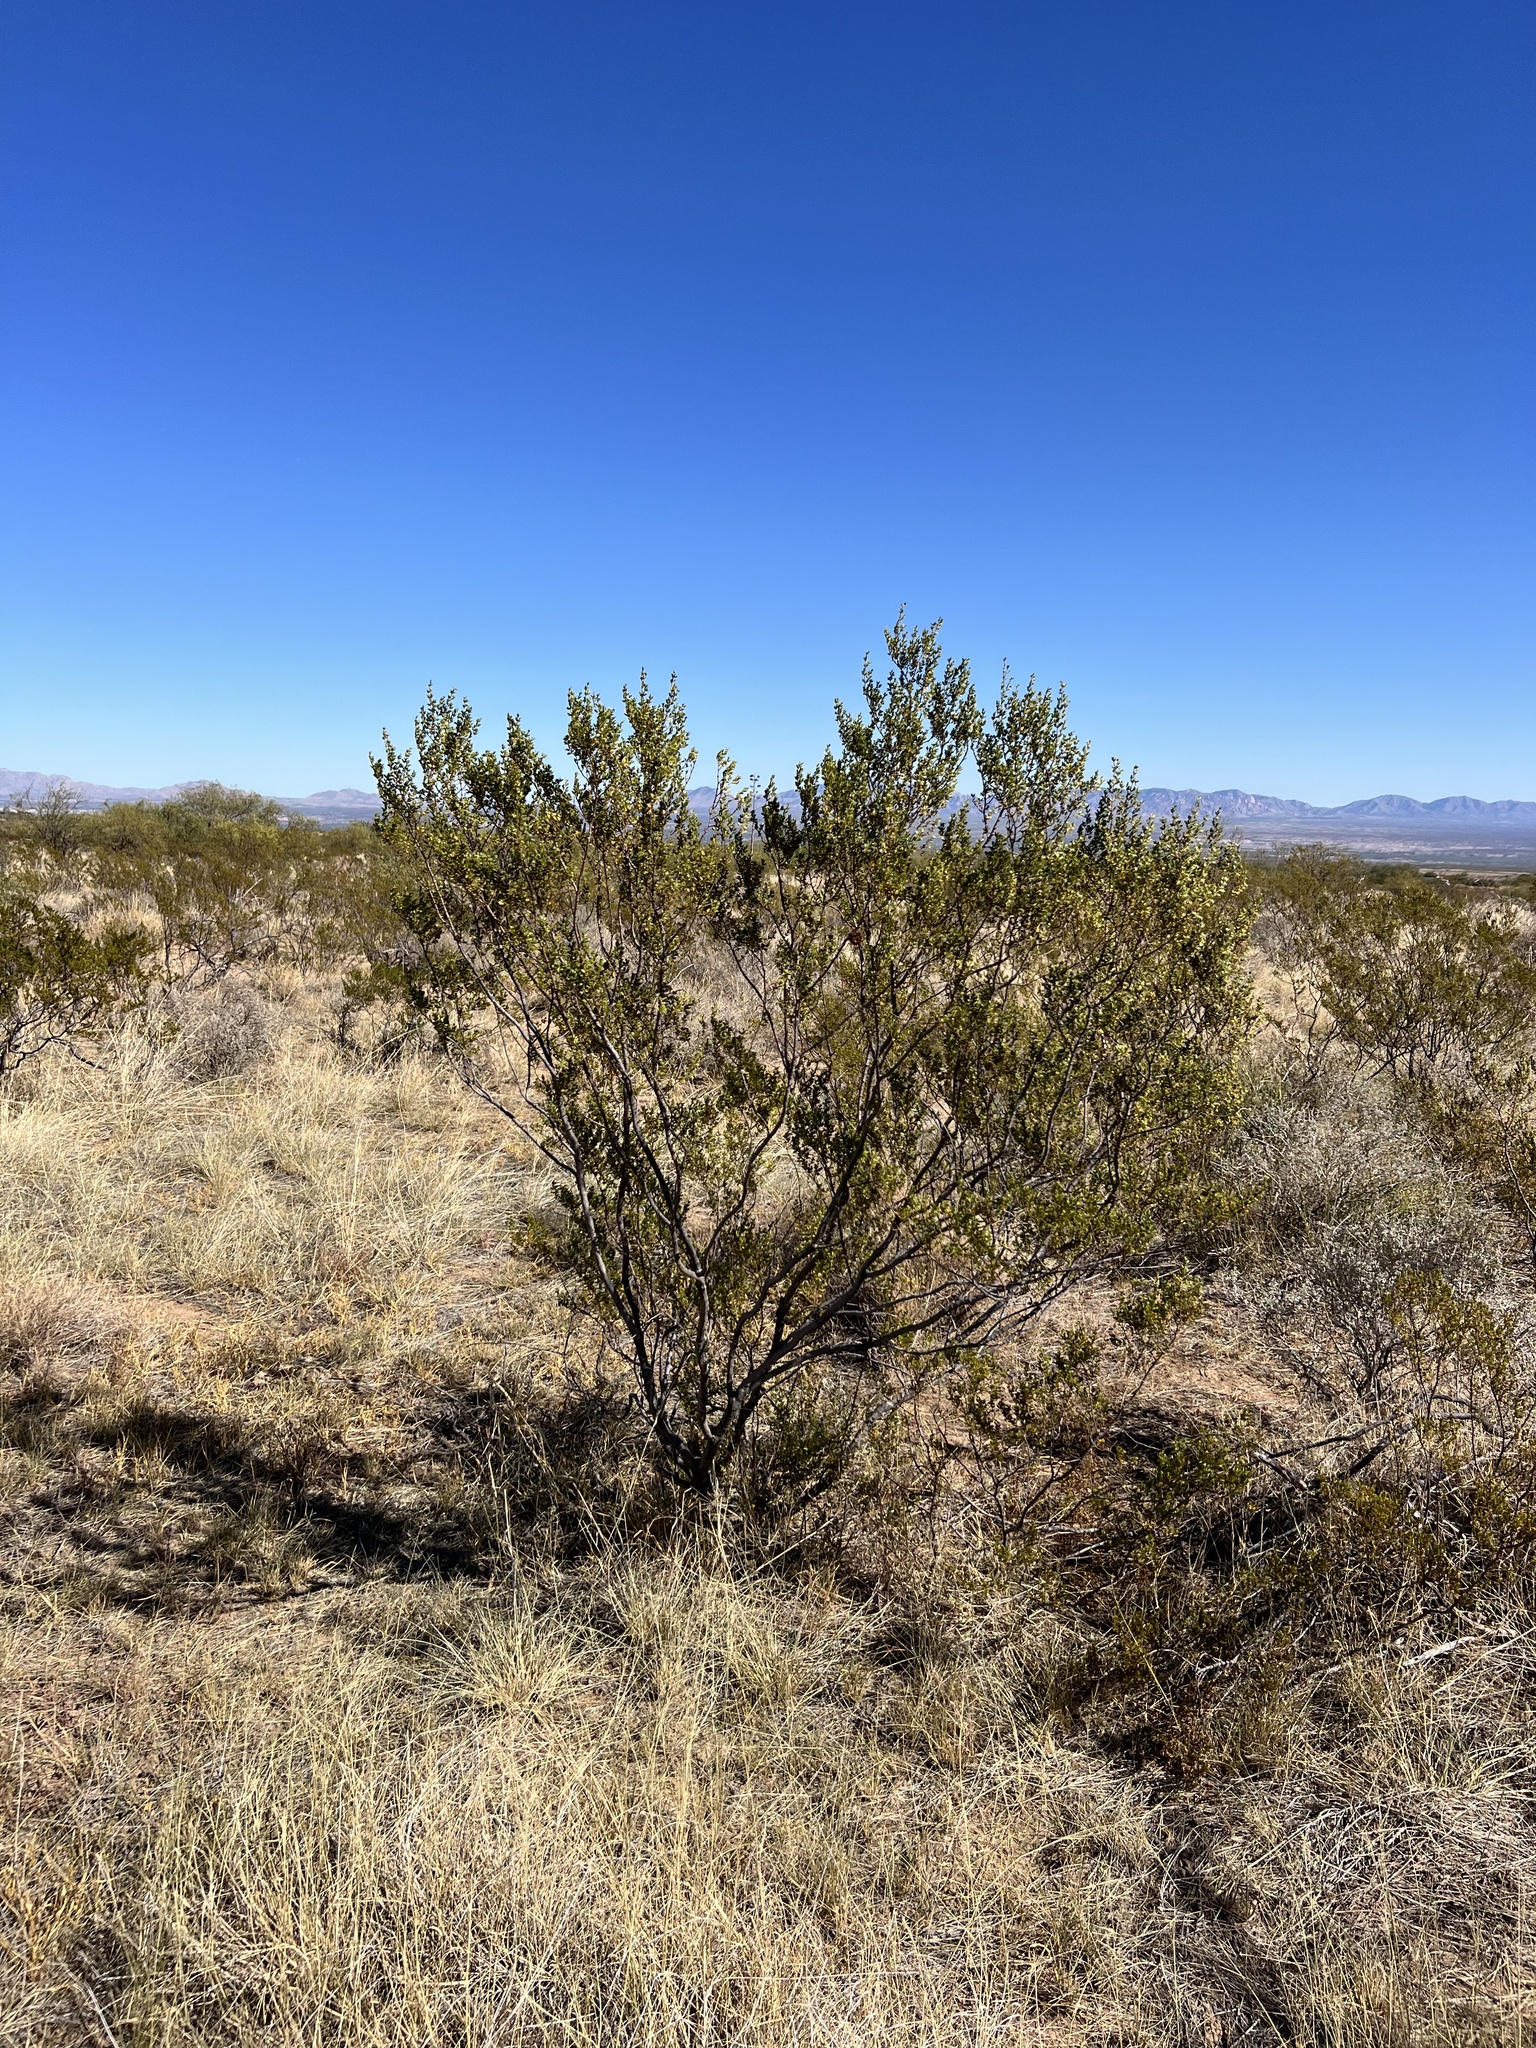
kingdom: Plantae
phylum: Tracheophyta
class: Magnoliopsida
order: Zygophyllales
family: Zygophyllaceae
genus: Larrea
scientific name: Larrea tridentata
